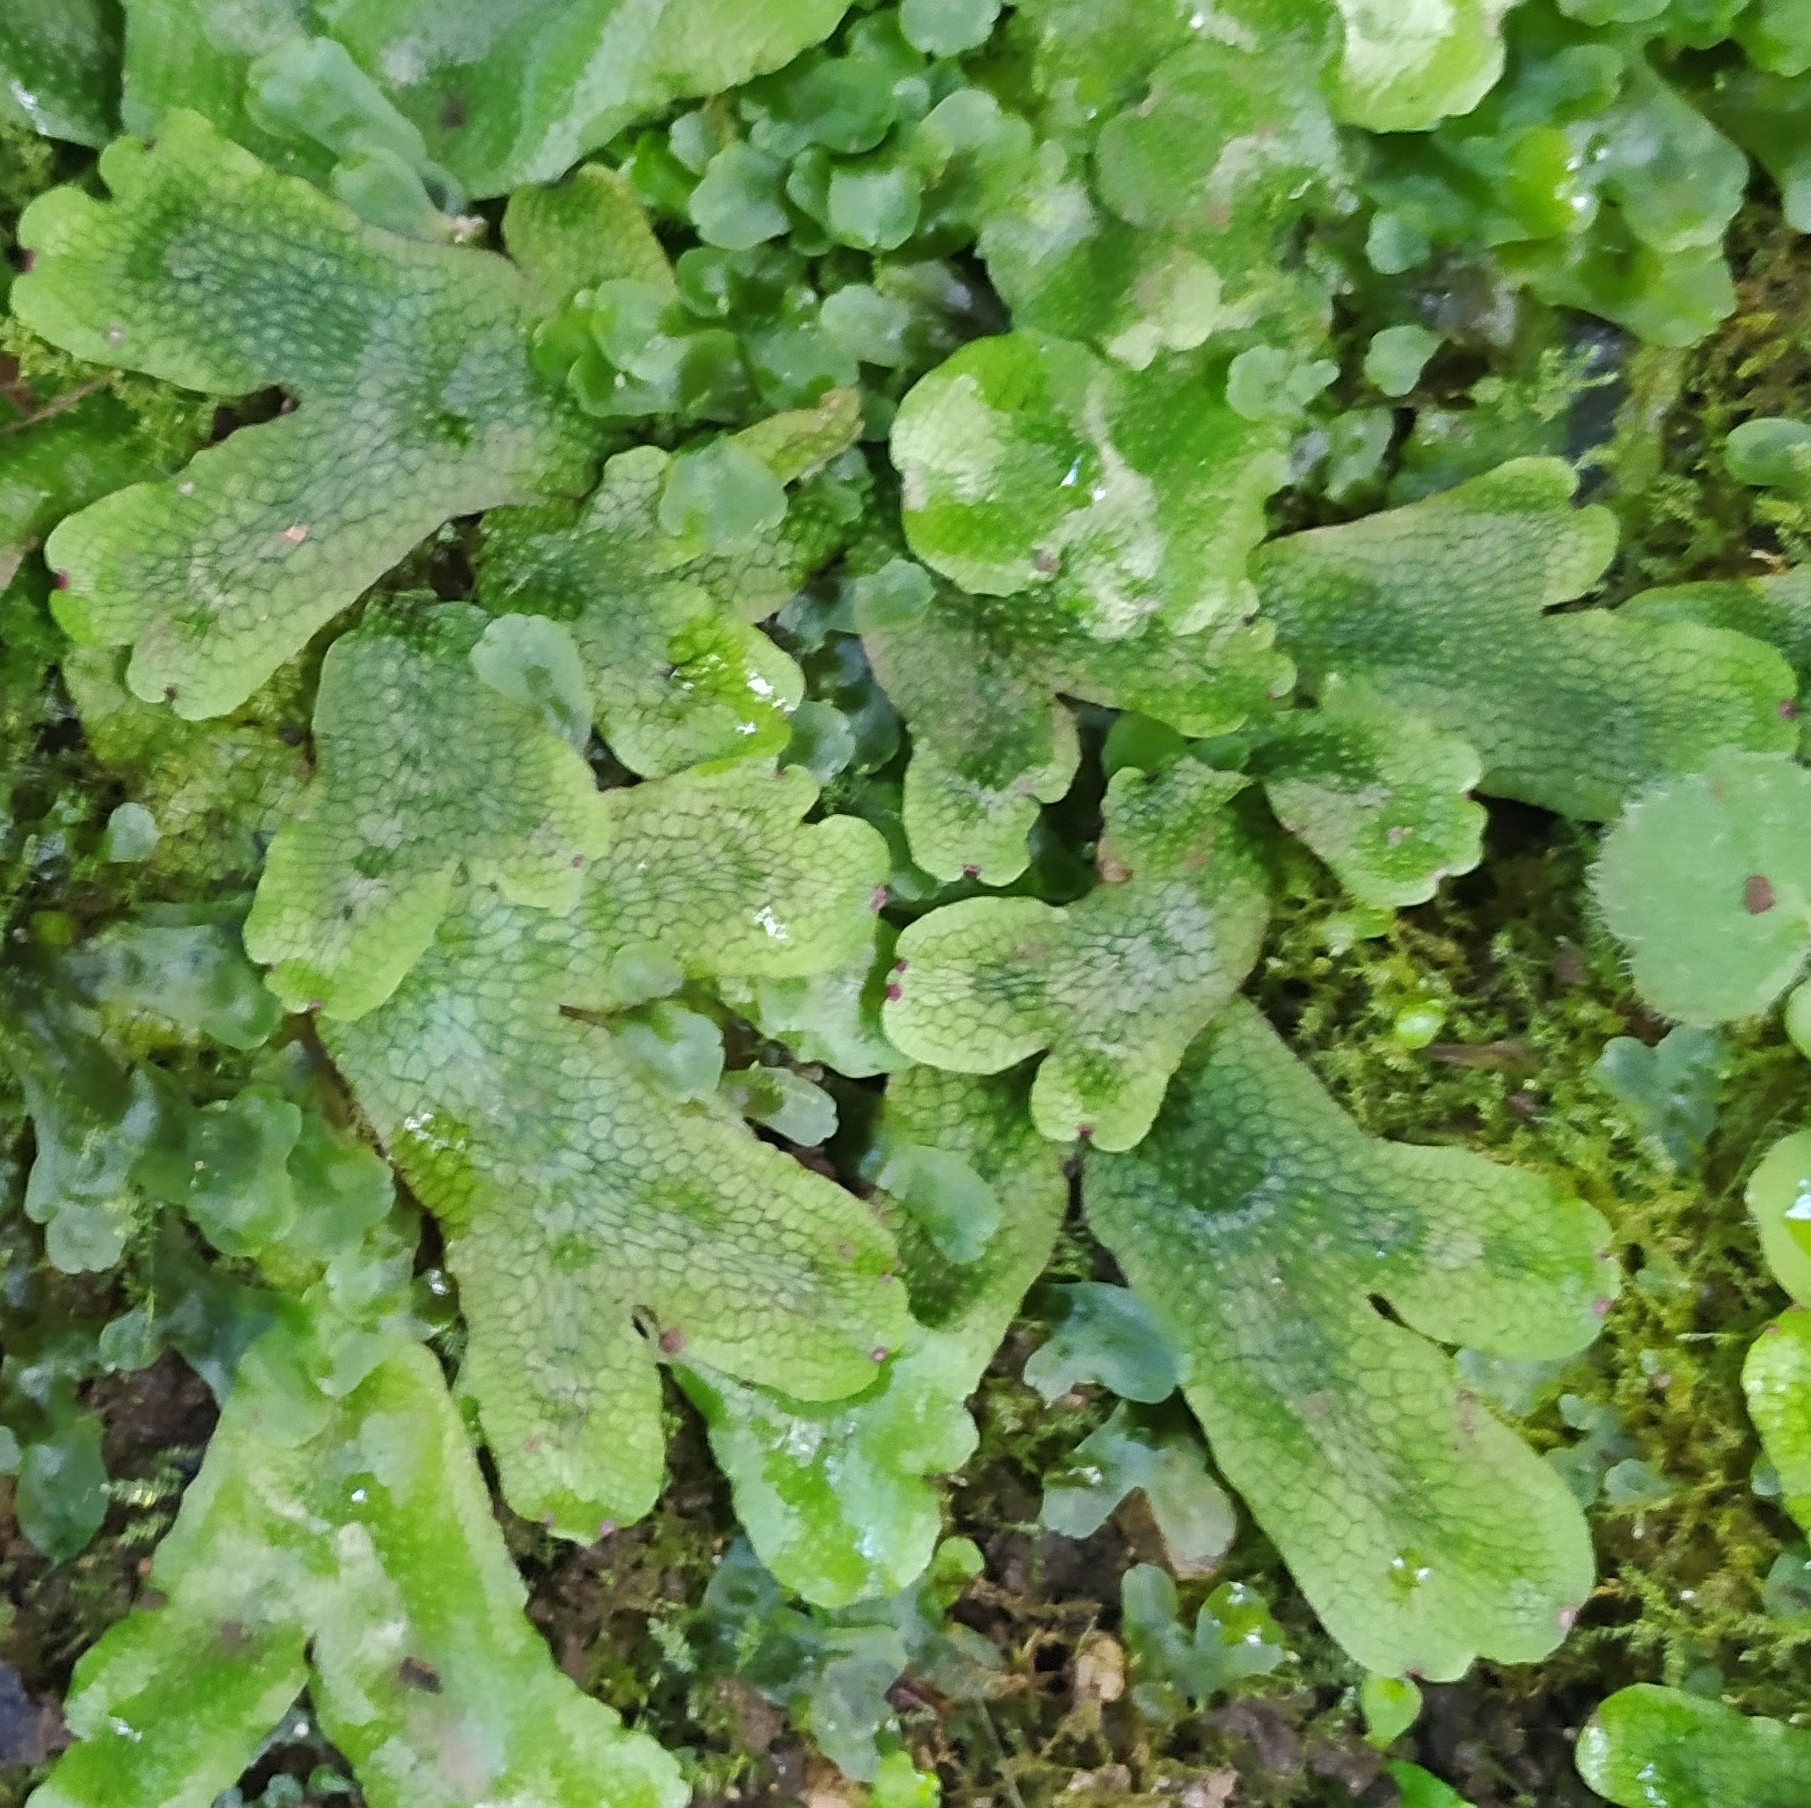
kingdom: Plantae
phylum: Marchantiophyta
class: Marchantiopsida
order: Marchantiales
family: Conocephalaceae
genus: Conocephalum
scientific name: Conocephalum salebrosum
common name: Cat-tongue liverwort
